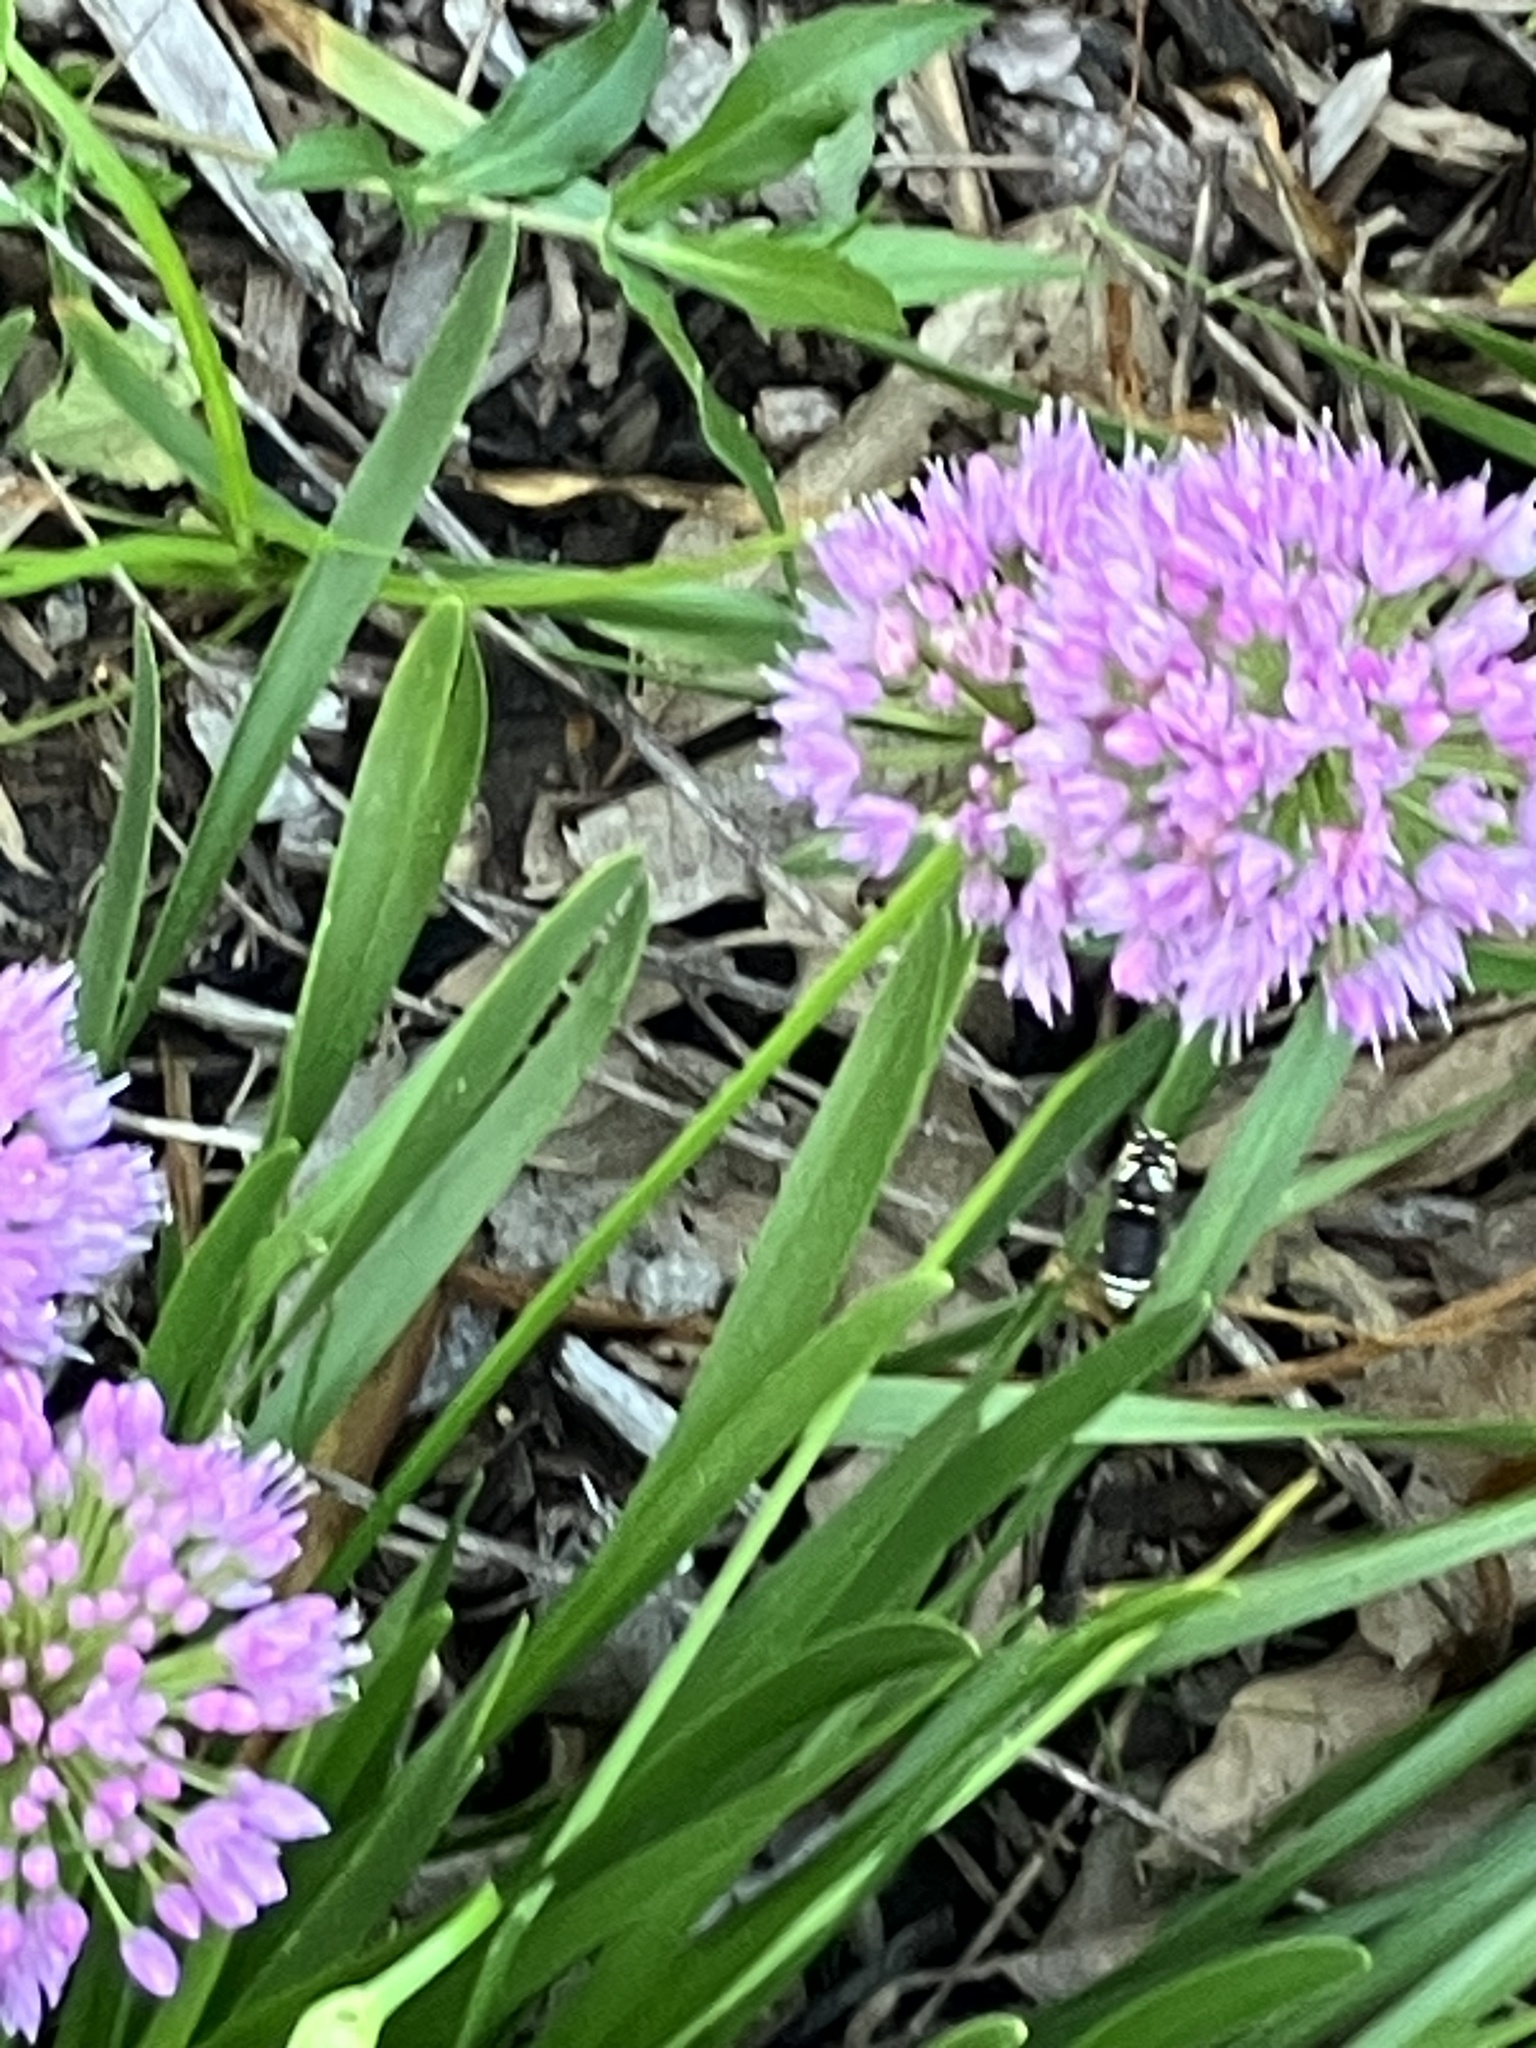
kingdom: Animalia
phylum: Arthropoda
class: Insecta
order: Hymenoptera
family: Vespidae
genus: Dolichovespula
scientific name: Dolichovespula maculata
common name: Bald-faced hornet
